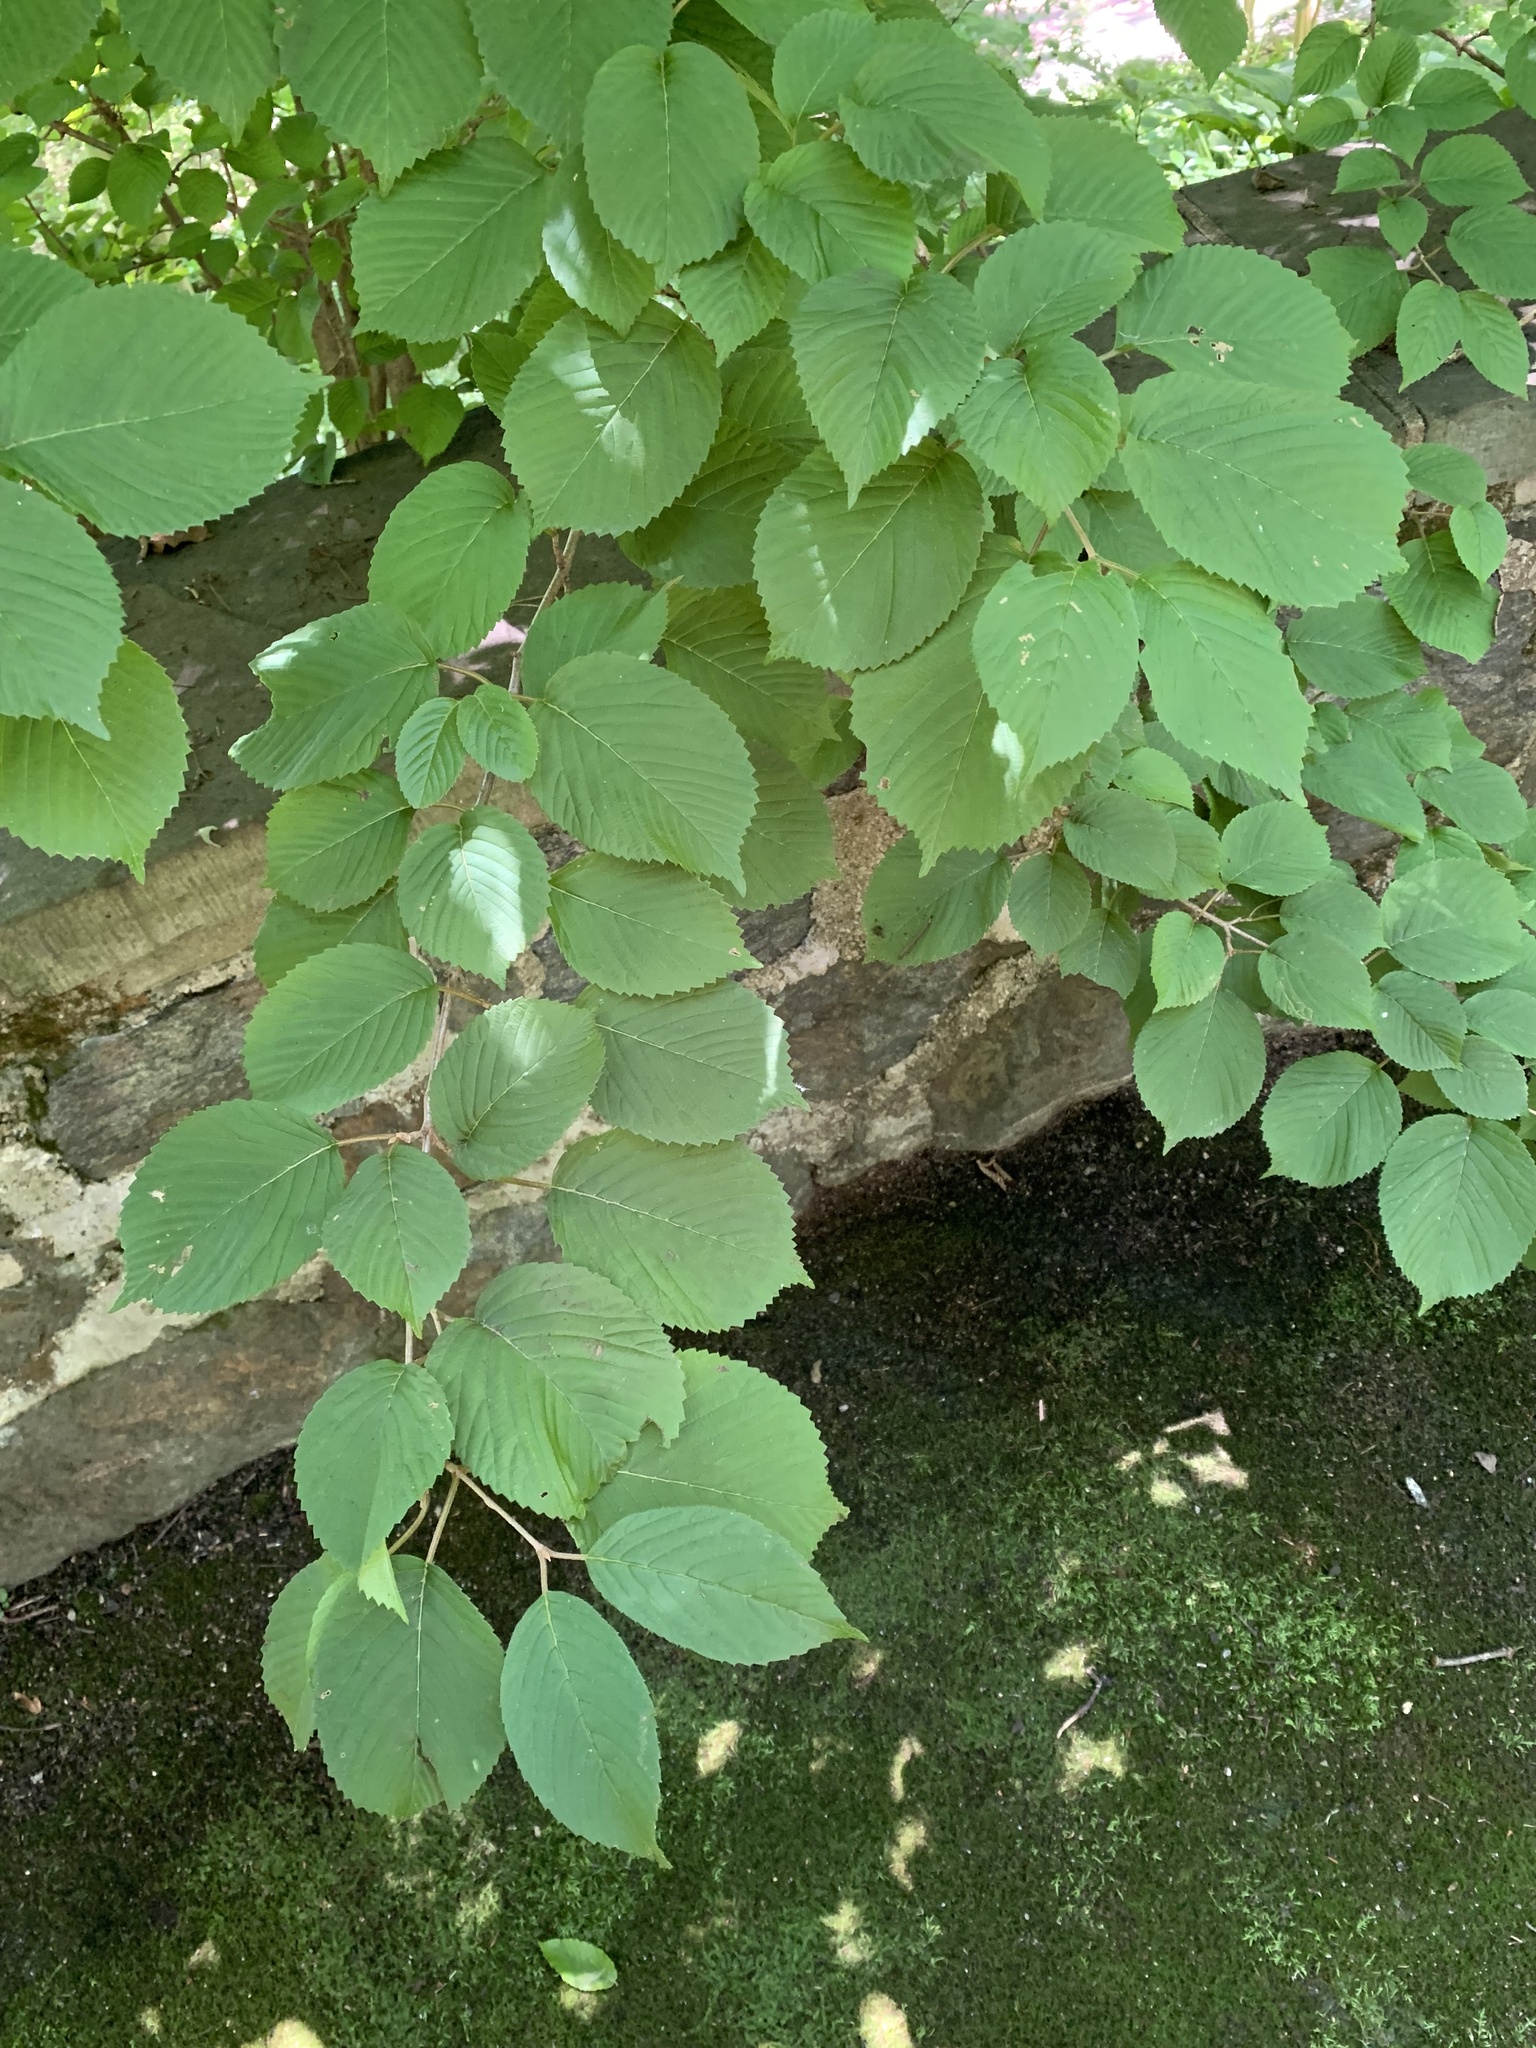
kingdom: Plantae
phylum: Tracheophyta
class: Magnoliopsida
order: Dipsacales
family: Viburnaceae
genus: Viburnum
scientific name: Viburnum plicatum
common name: Japanese snowball
